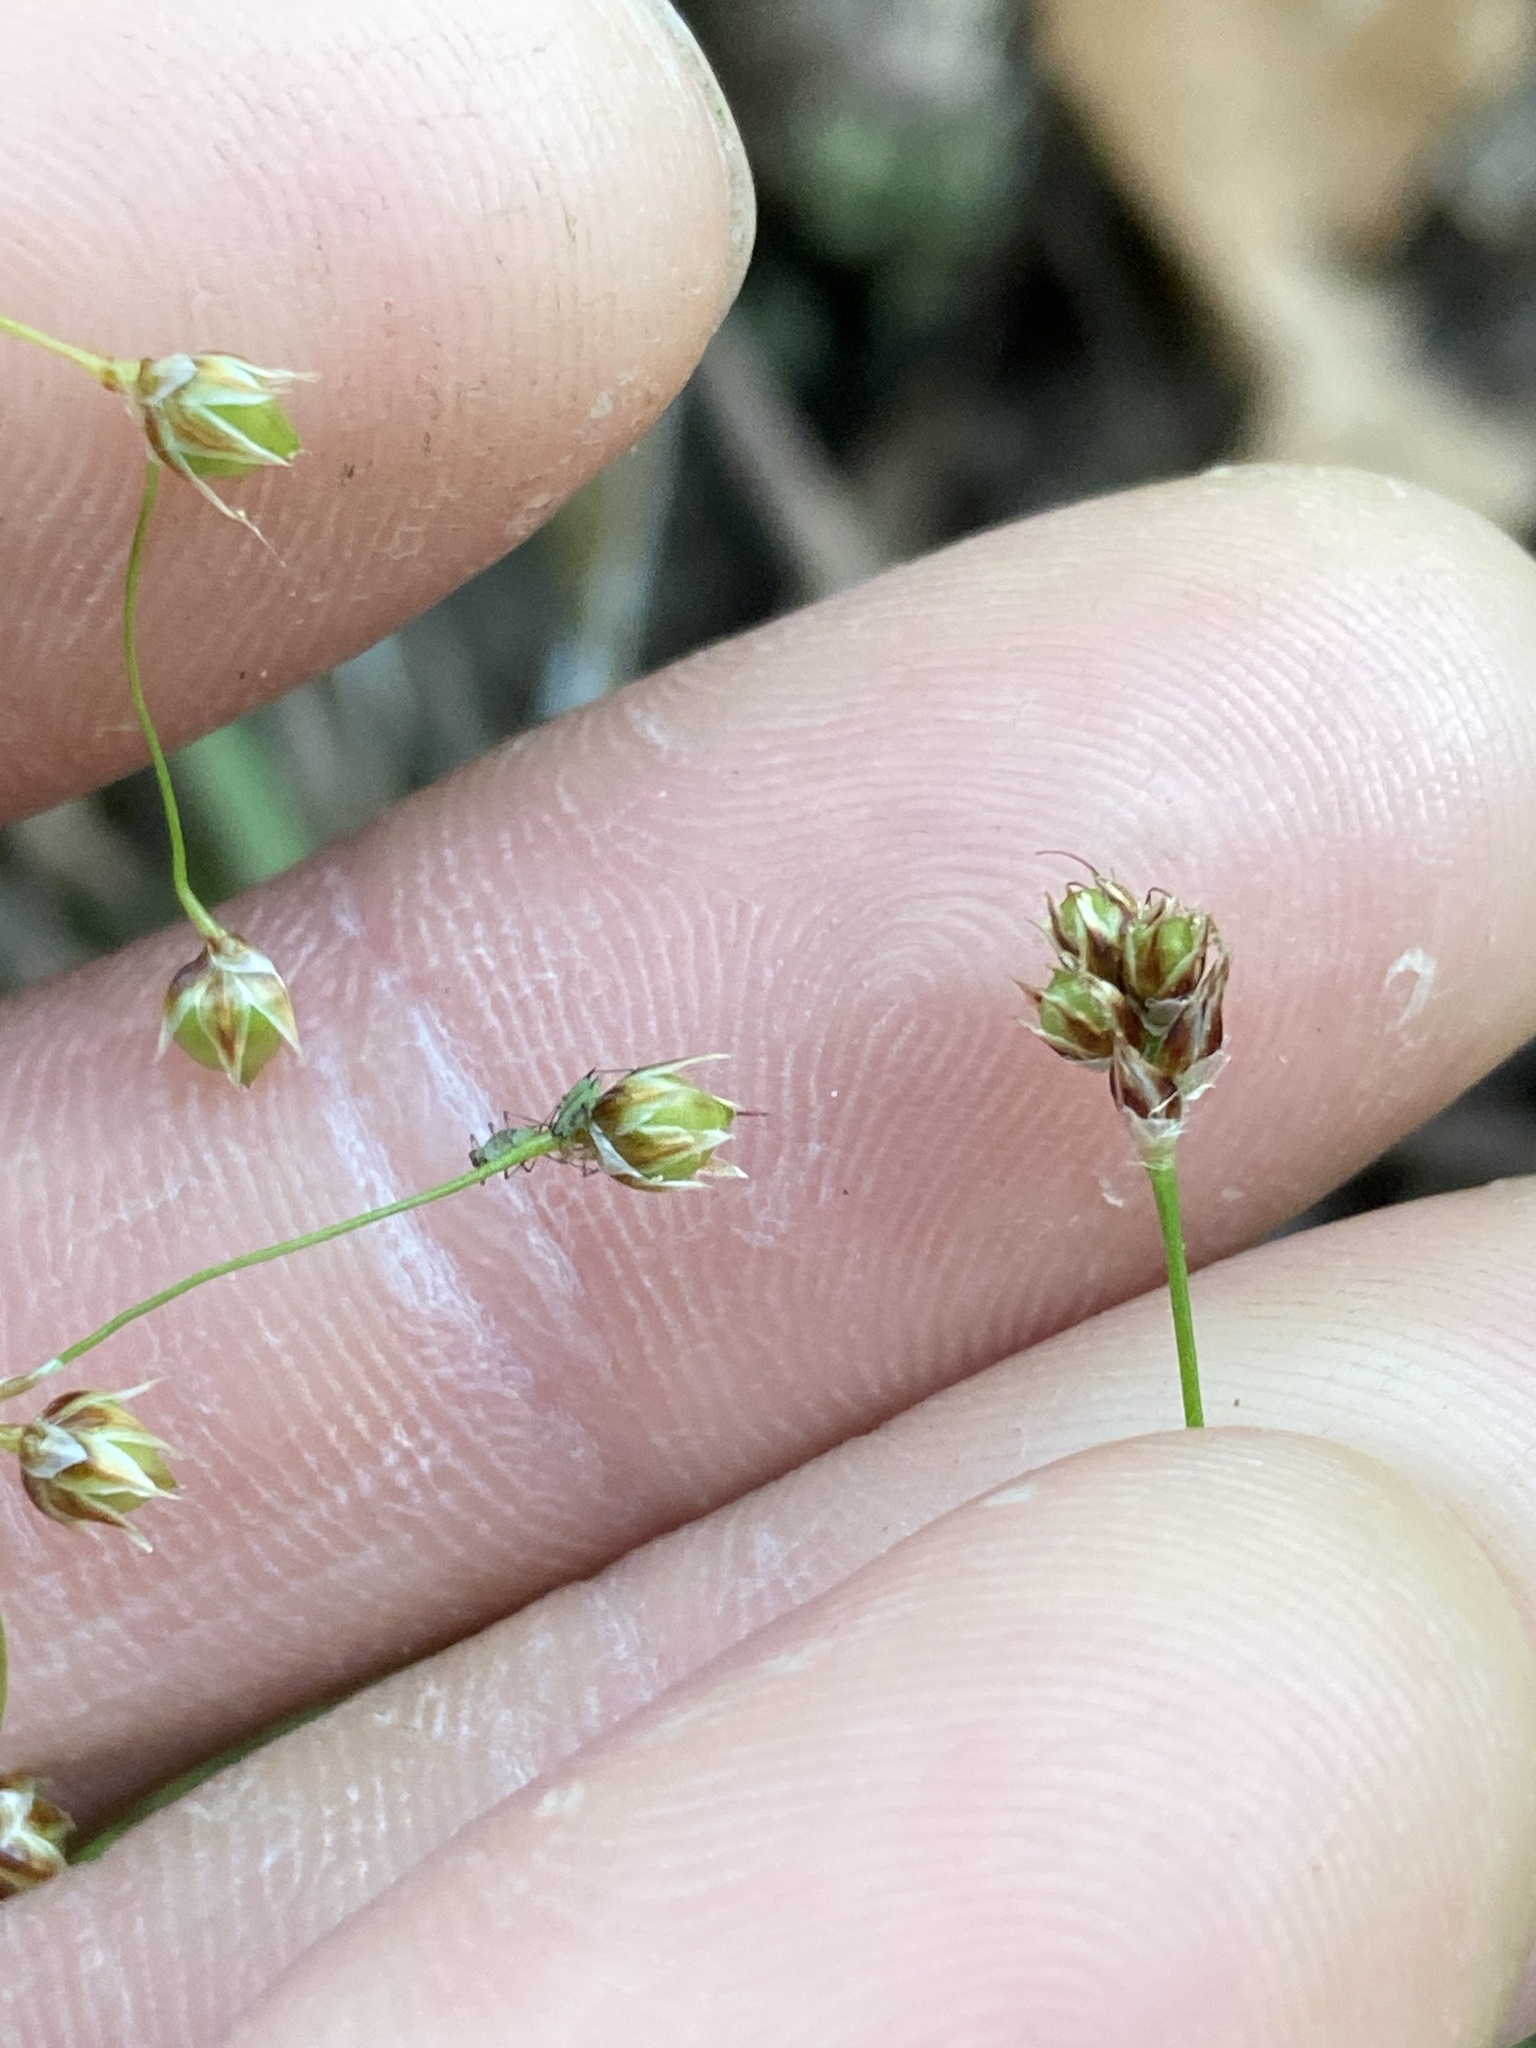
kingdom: Plantae
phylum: Tracheophyta
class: Liliopsida
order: Poales
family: Juncaceae
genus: Luzula
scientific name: Luzula acuminata
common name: Hairy woodrush
